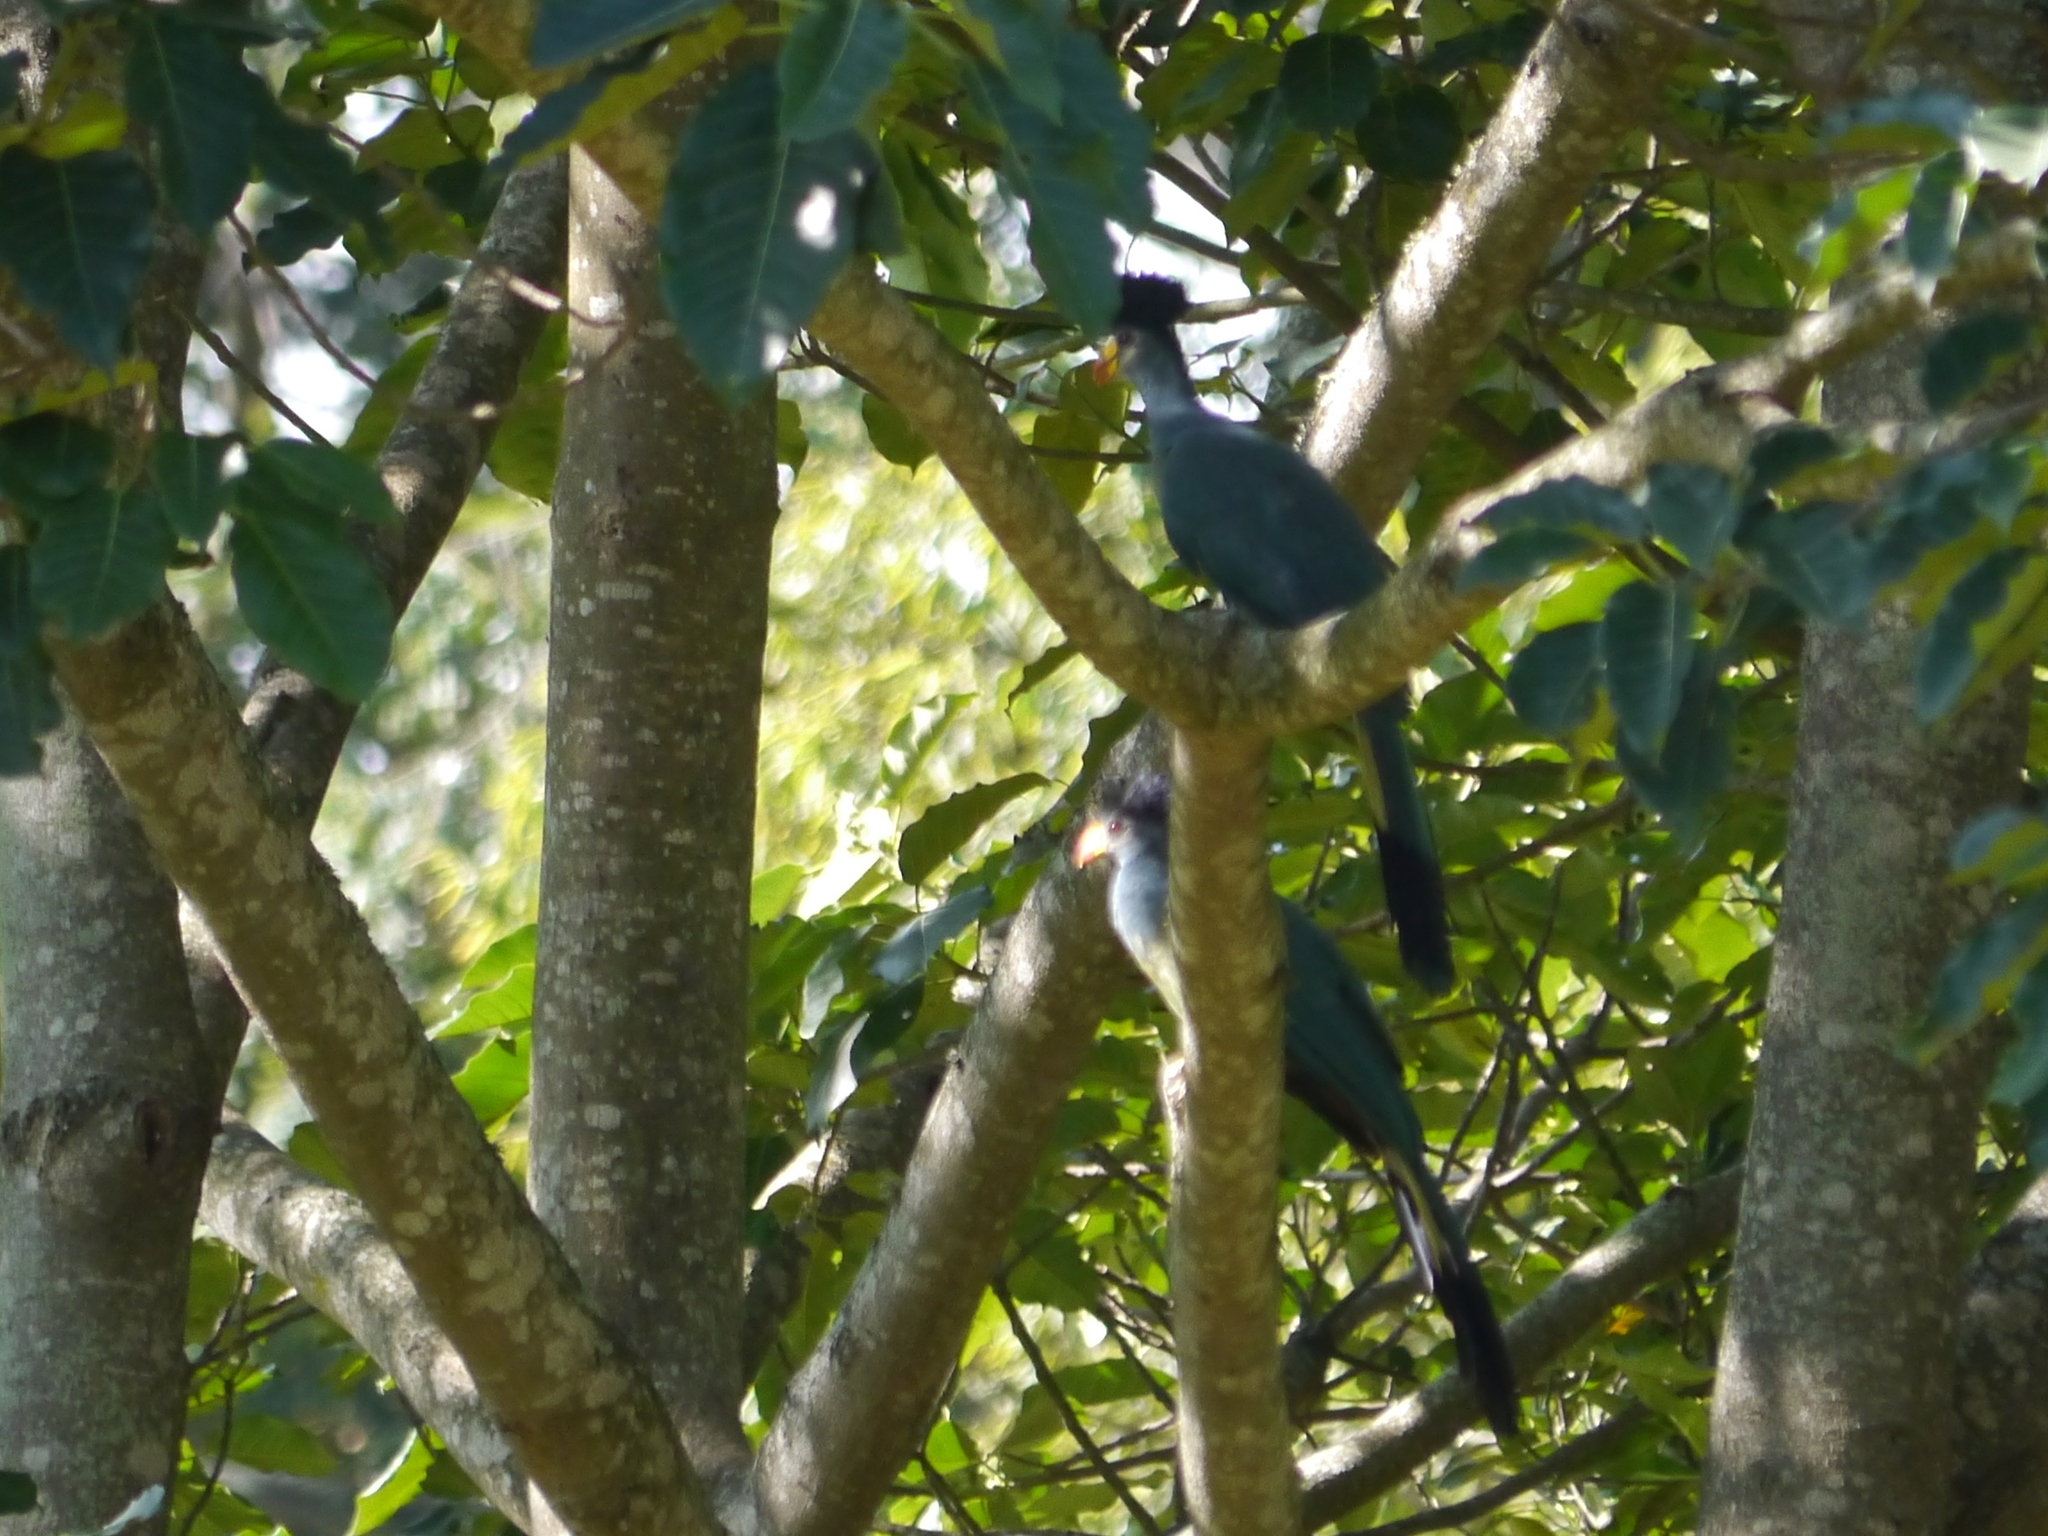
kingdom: Animalia
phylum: Chordata
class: Aves
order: Musophagiformes
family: Musophagidae
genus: Corythaeola
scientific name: Corythaeola cristata
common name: Great blue turaco
